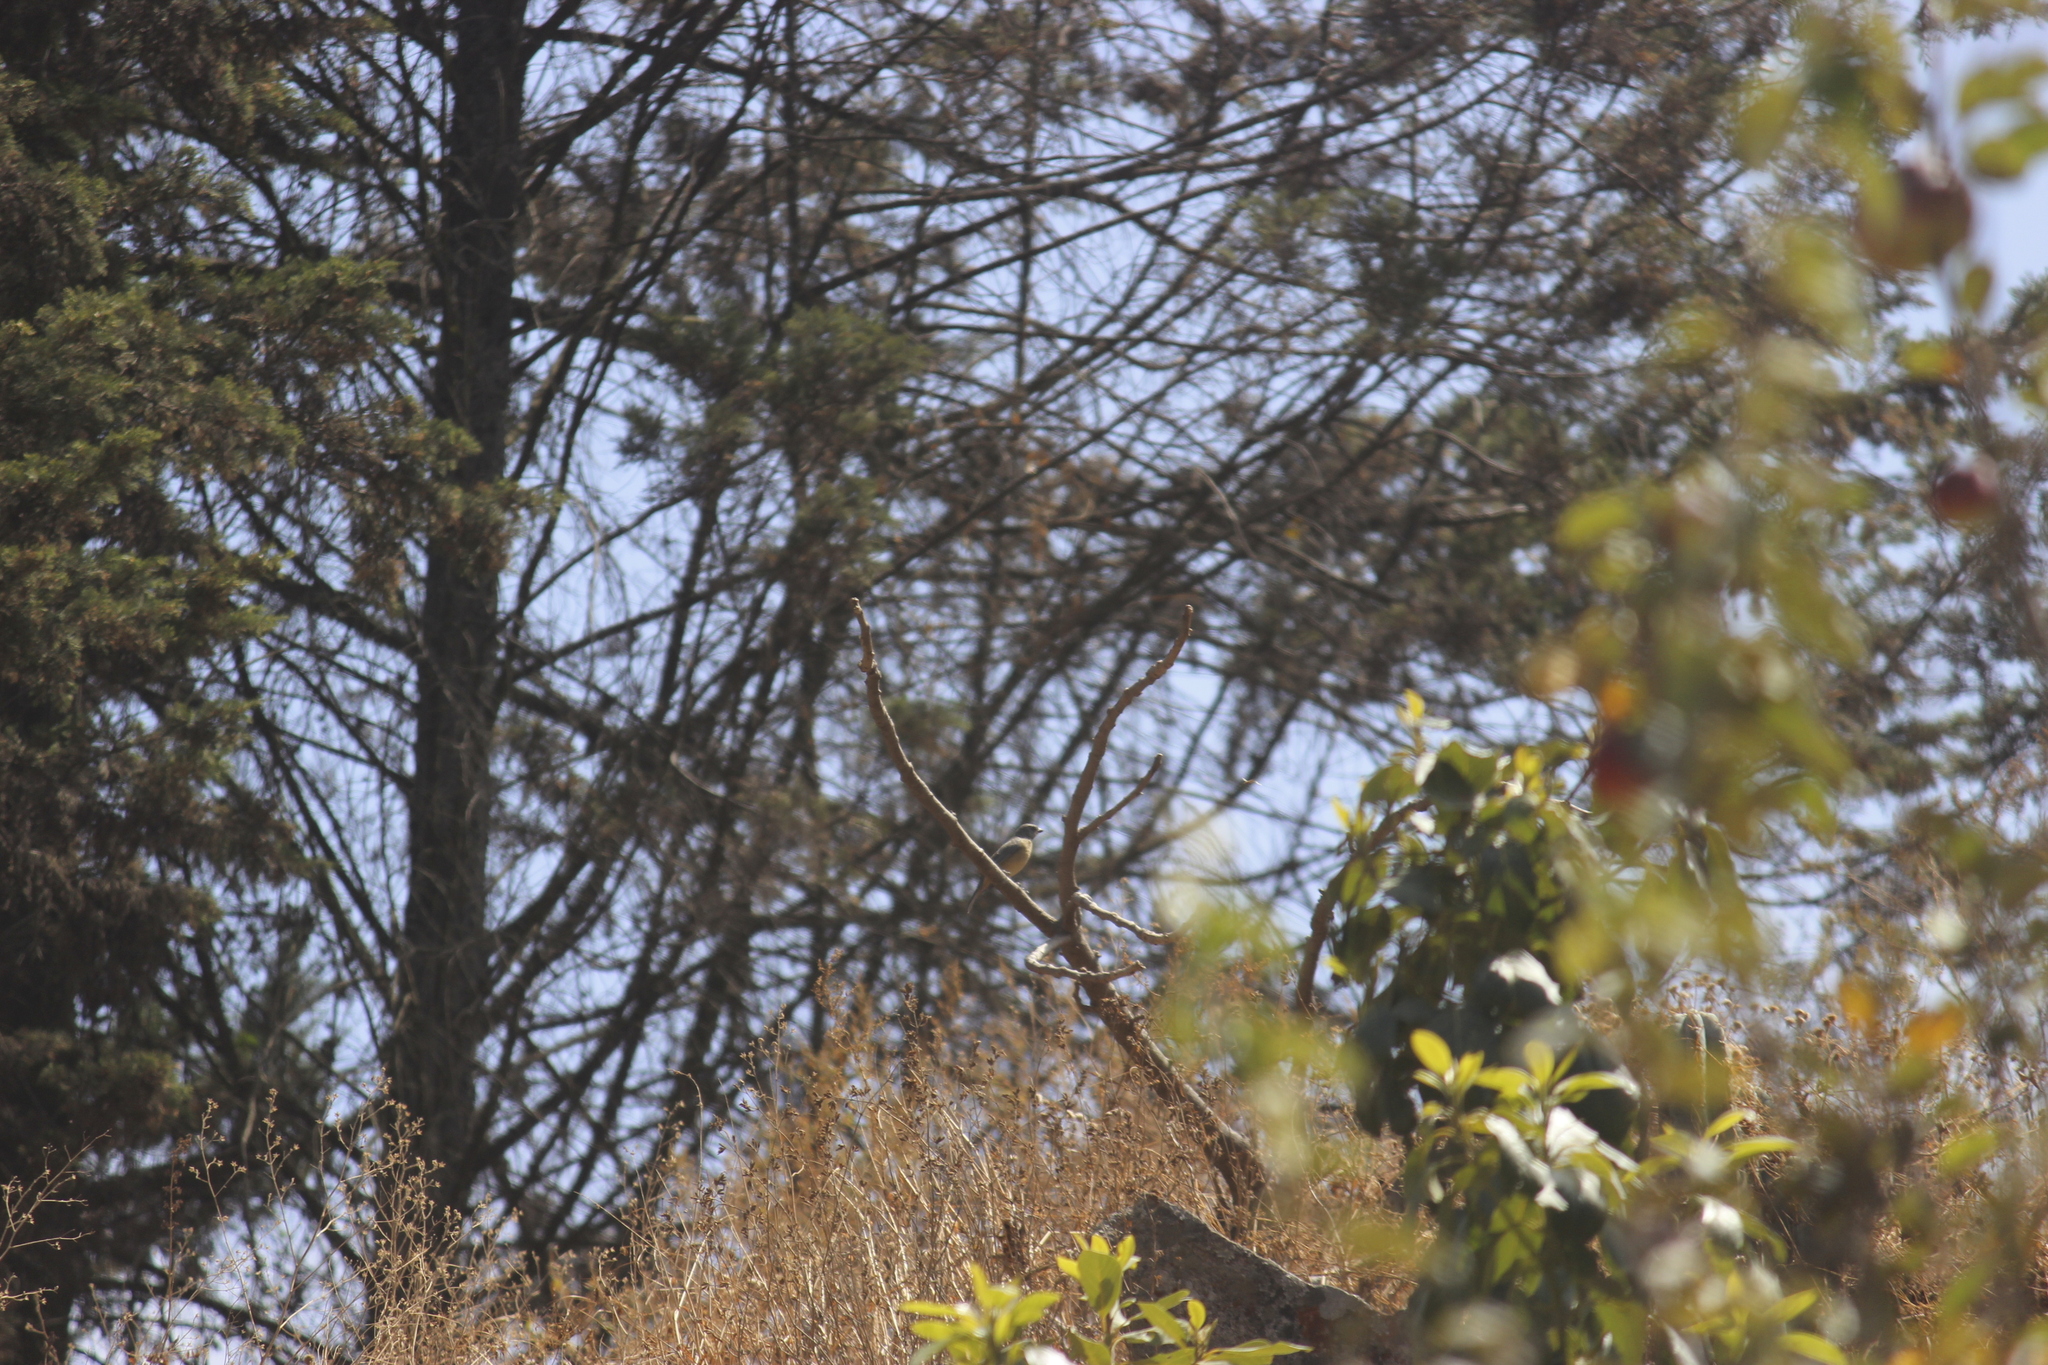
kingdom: Animalia
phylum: Chordata
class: Aves
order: Passeriformes
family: Thraupidae
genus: Rauenia
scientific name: Rauenia bonariensis
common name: Blue-and-yellow tanager
